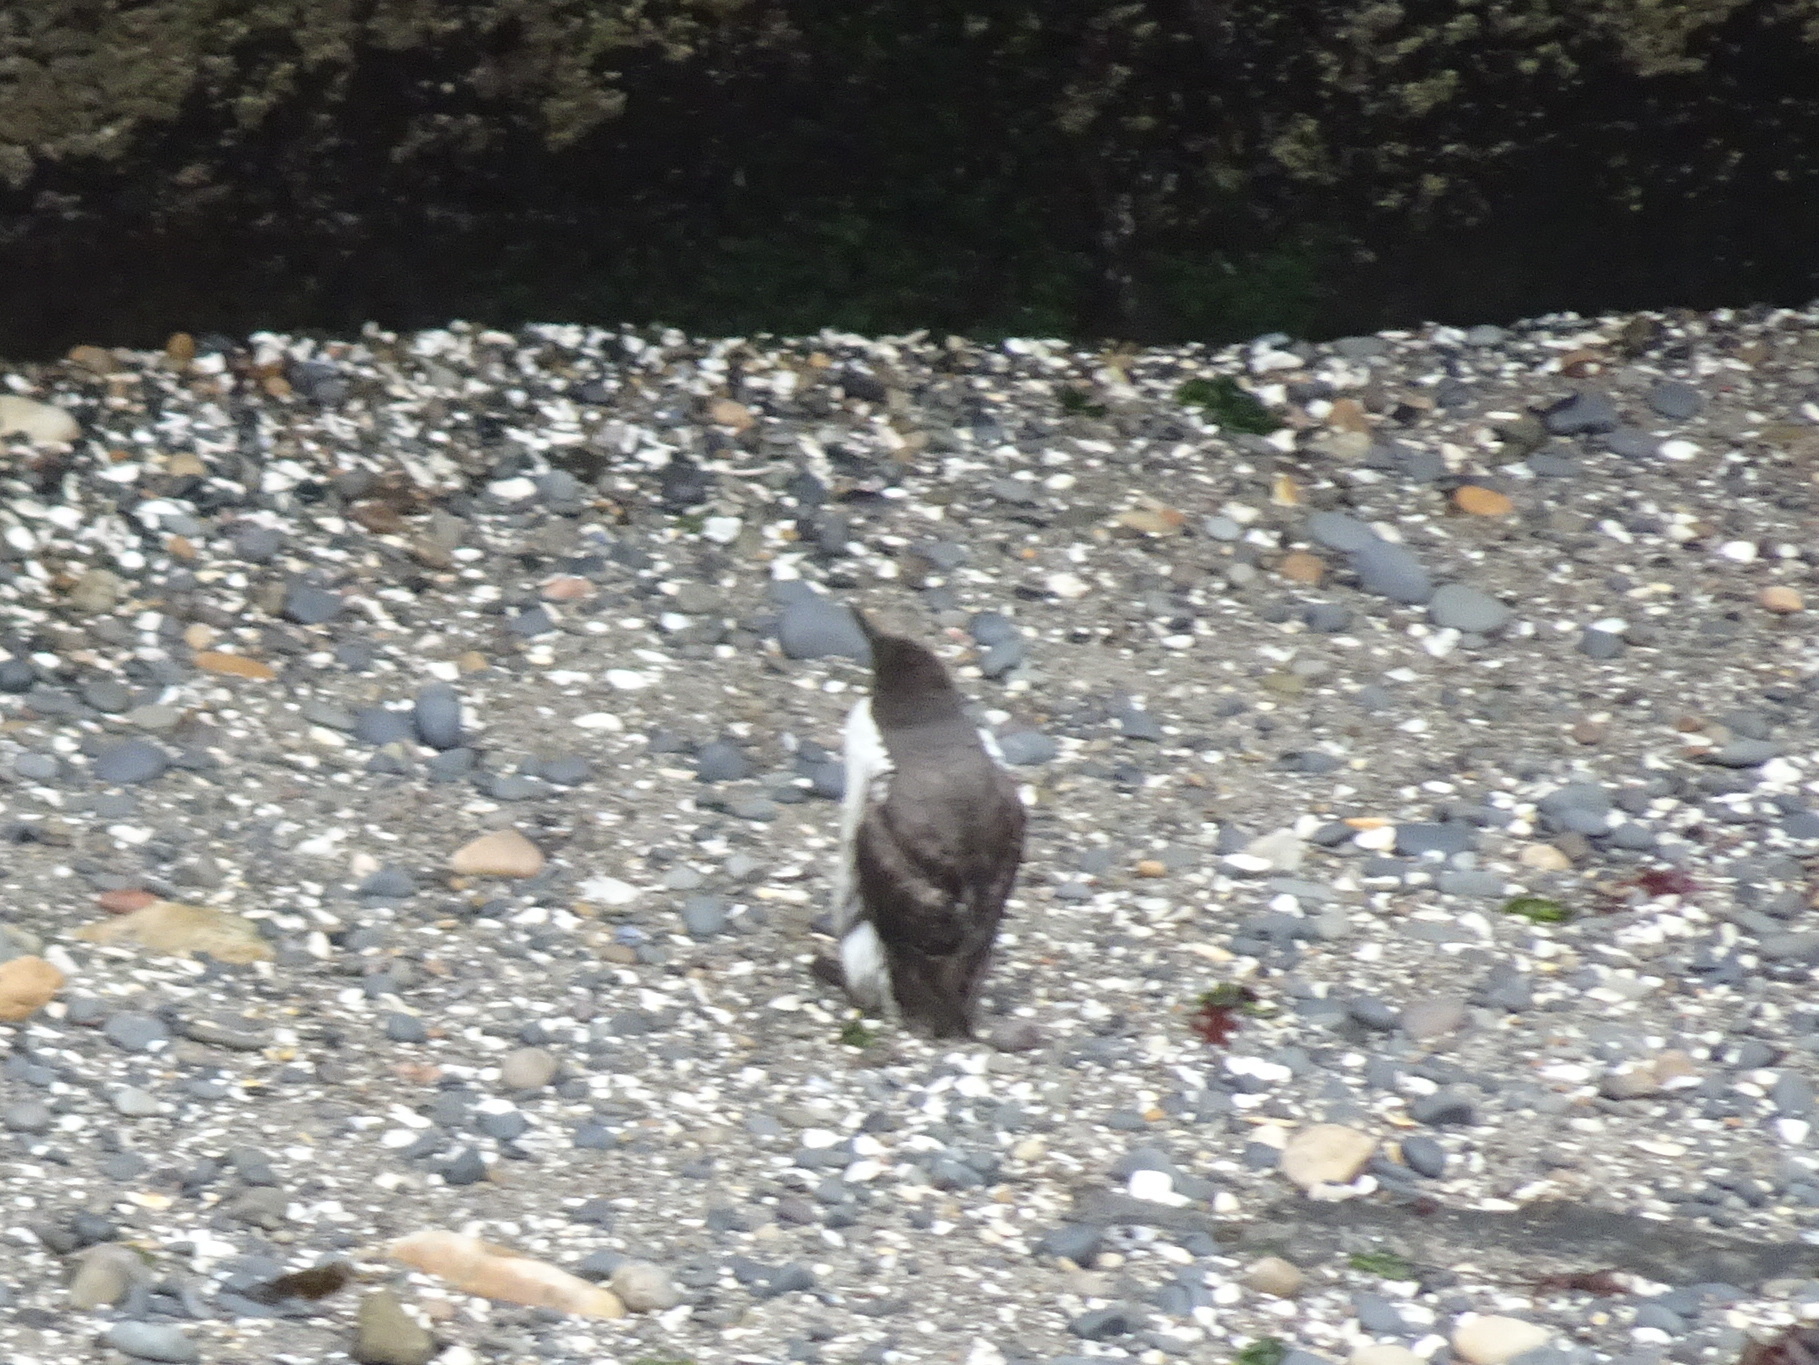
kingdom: Animalia
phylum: Chordata
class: Aves
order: Charadriiformes
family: Alcidae
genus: Uria
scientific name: Uria aalge
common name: Common murre
